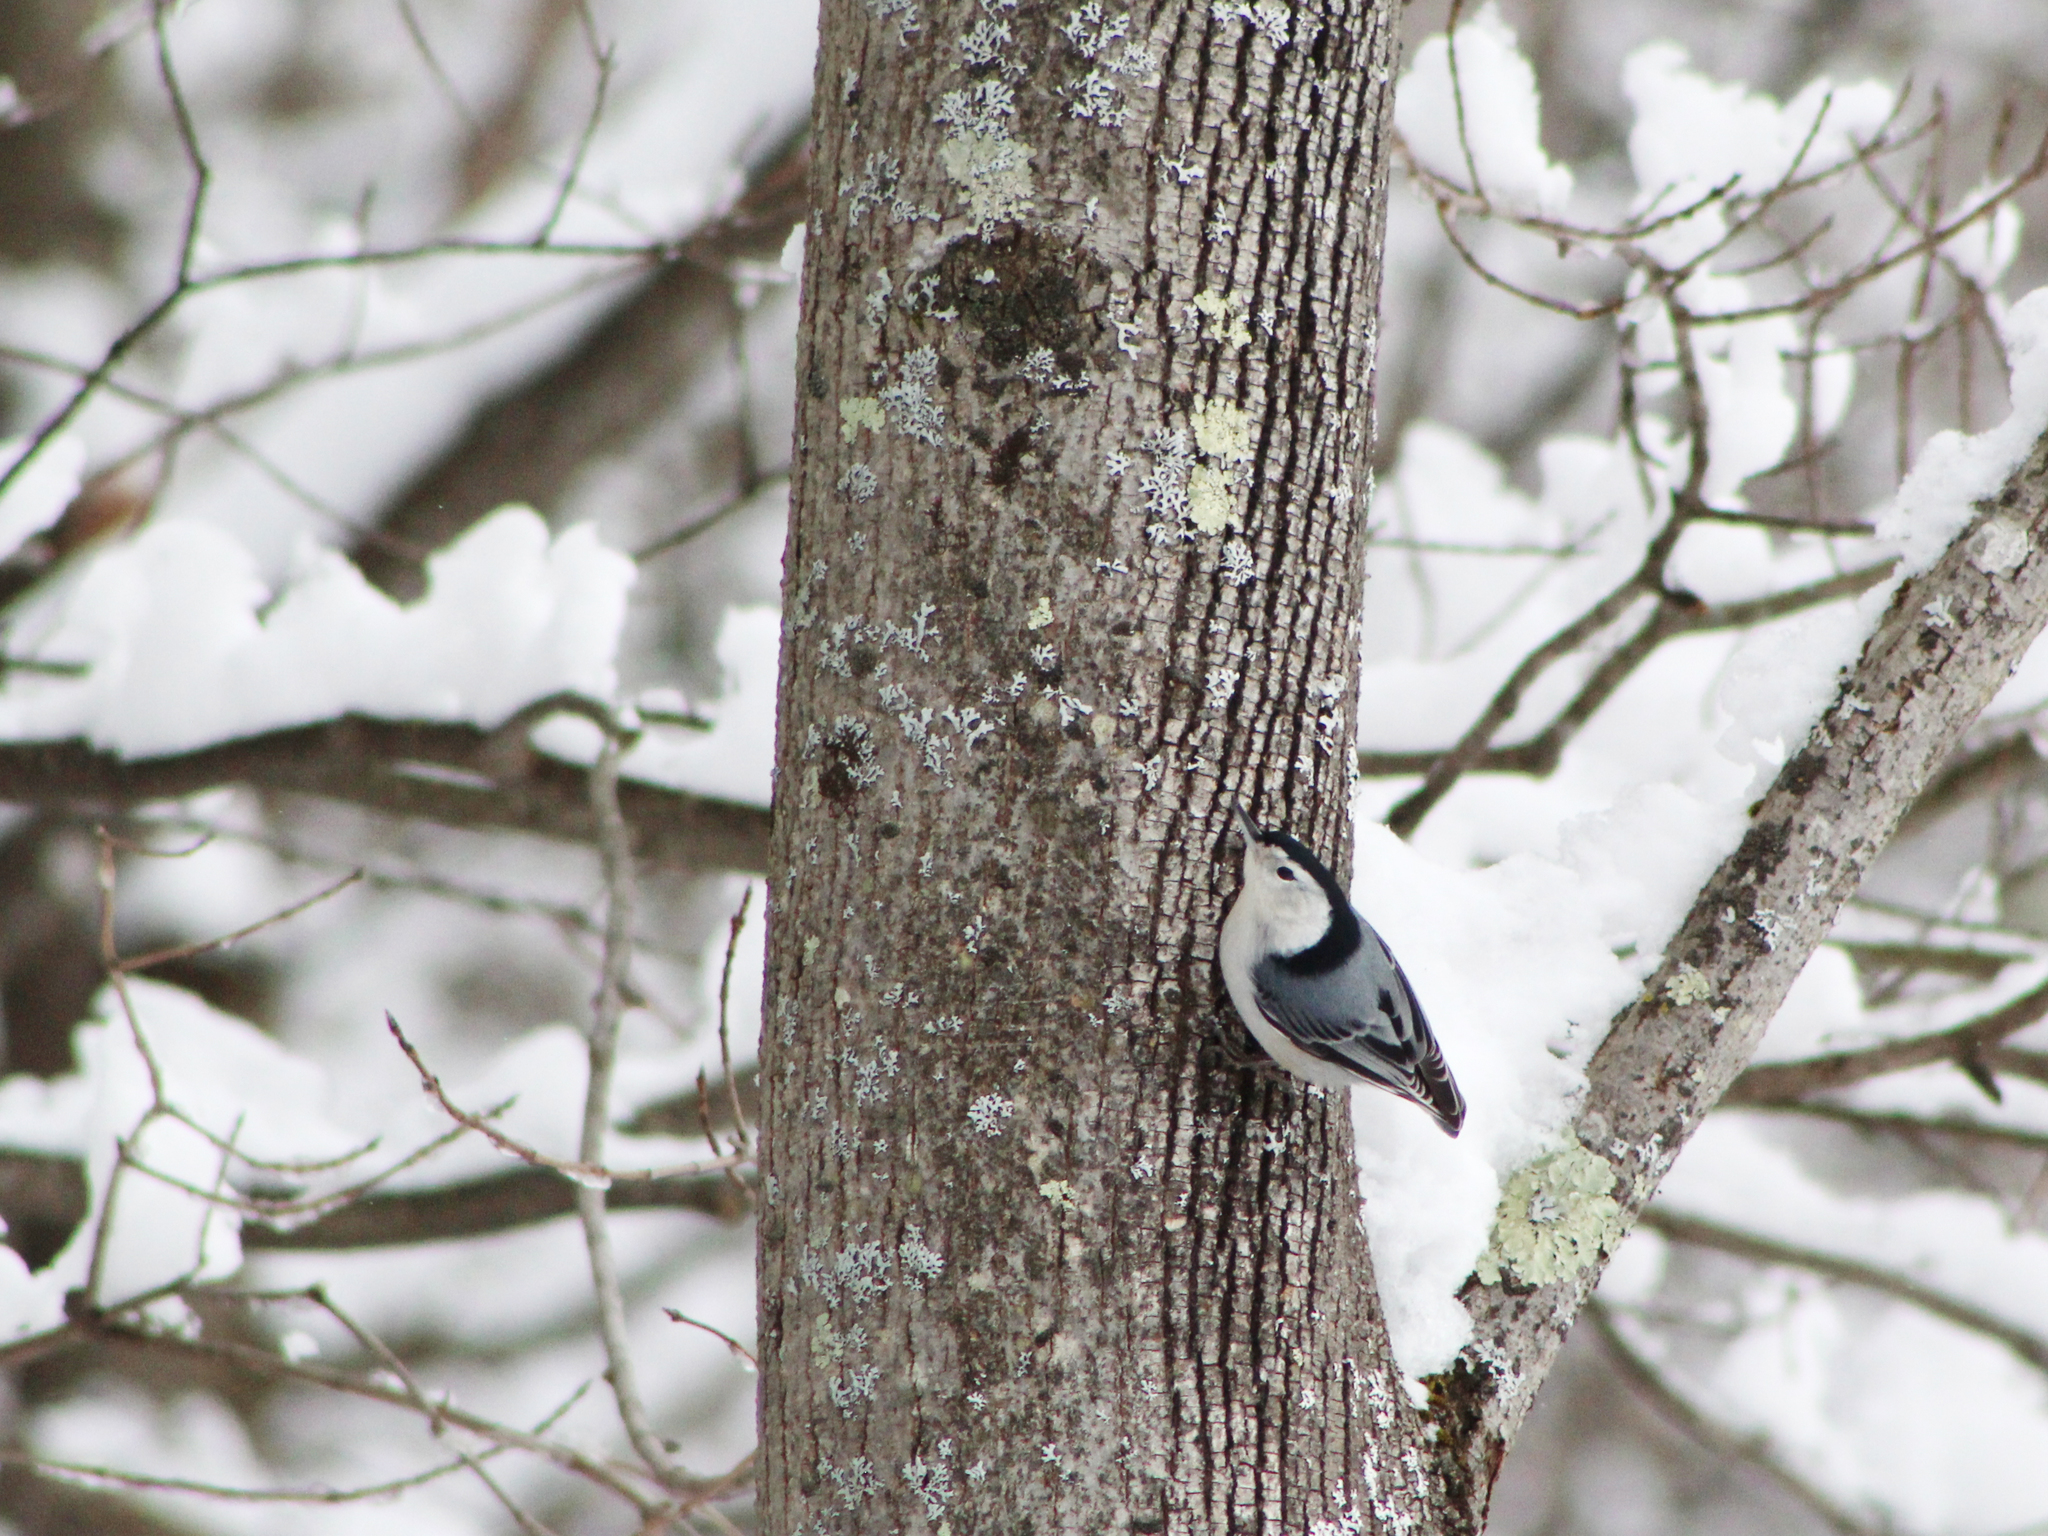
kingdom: Animalia
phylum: Chordata
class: Aves
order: Passeriformes
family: Sittidae
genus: Sitta
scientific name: Sitta carolinensis
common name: White-breasted nuthatch
